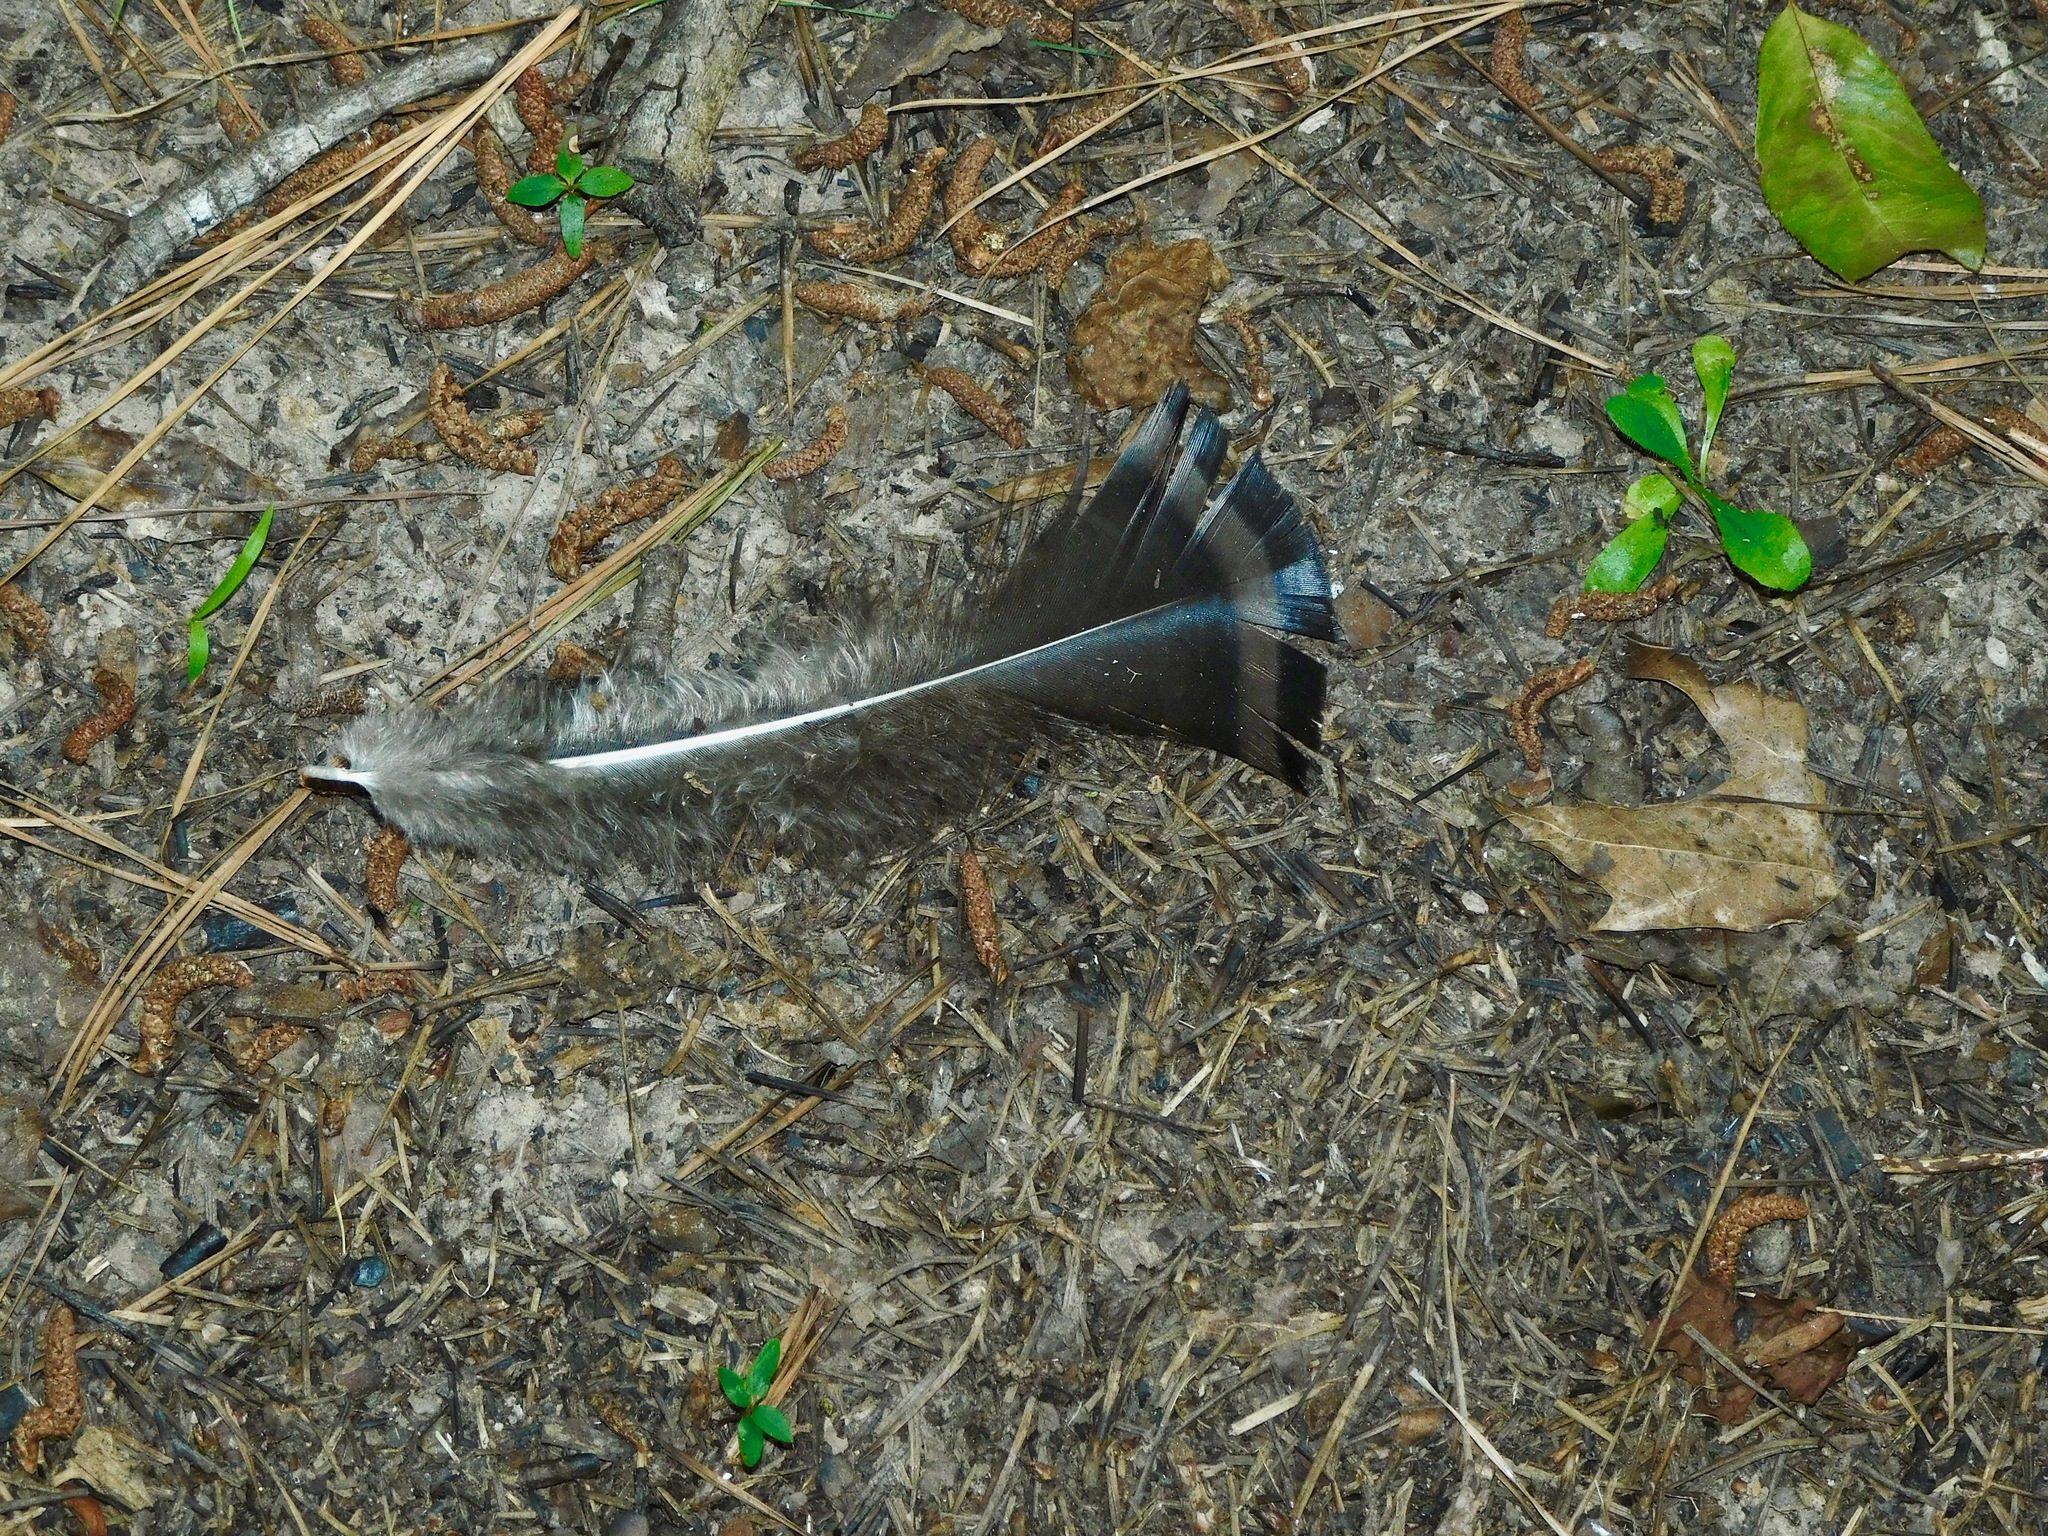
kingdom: Animalia
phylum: Chordata
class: Aves
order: Galliformes
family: Phasianidae
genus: Meleagris
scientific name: Meleagris gallopavo
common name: Wild turkey
